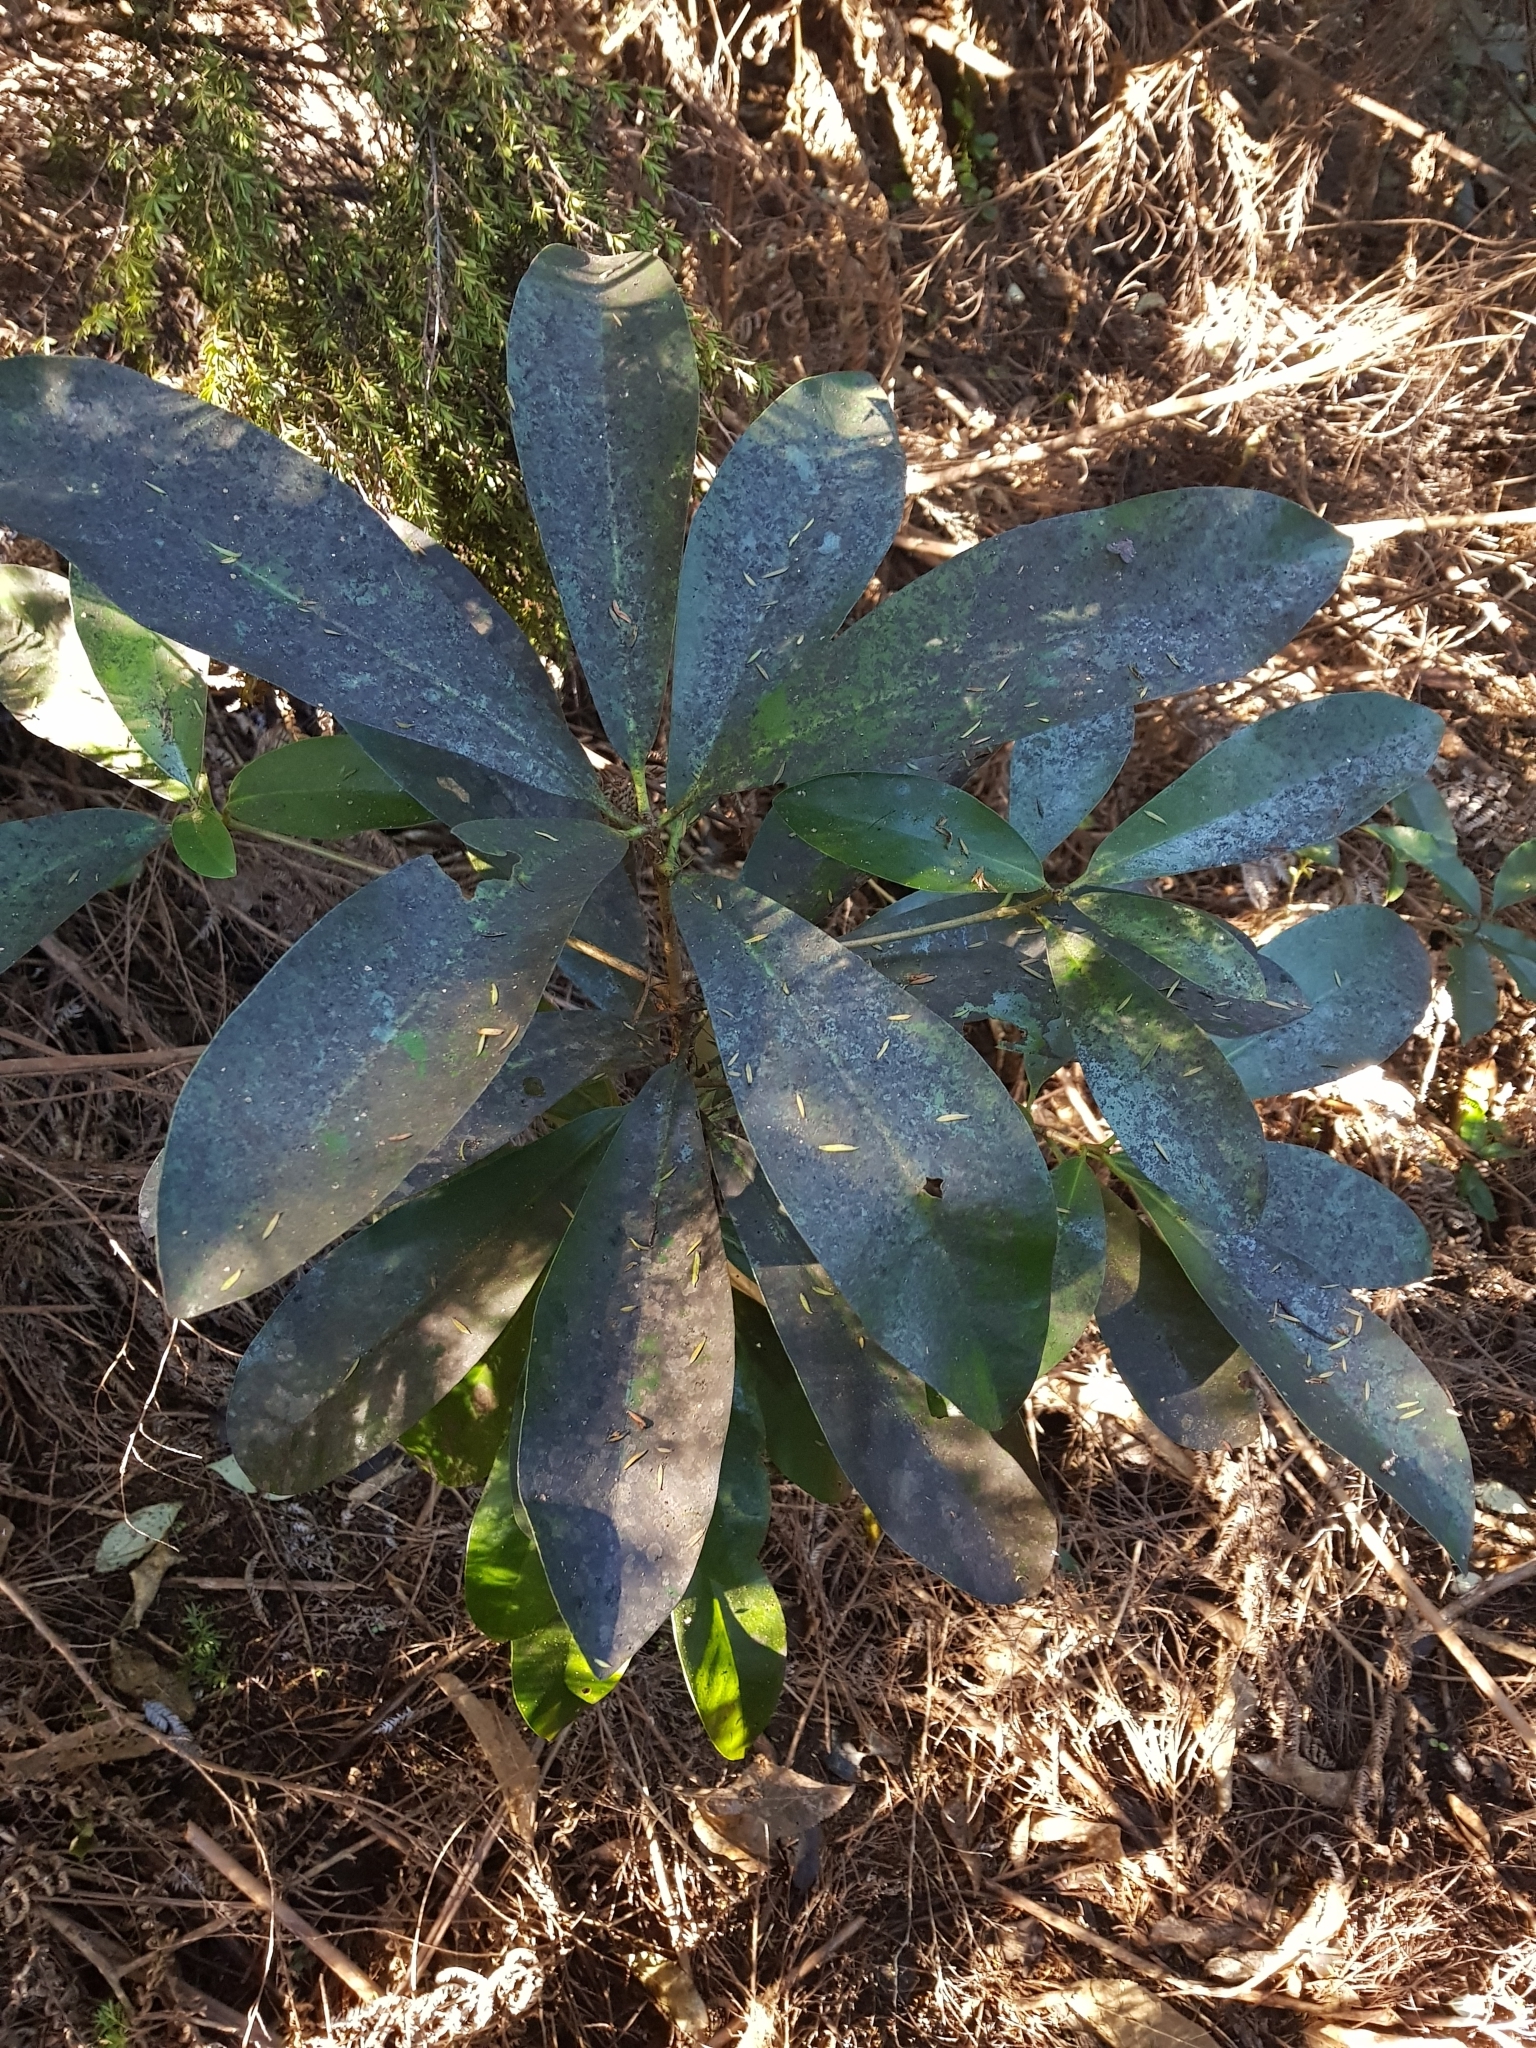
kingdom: Plantae
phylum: Tracheophyta
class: Magnoliopsida
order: Cucurbitales
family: Corynocarpaceae
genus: Corynocarpus
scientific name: Corynocarpus laevigatus
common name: New zealand laurel
